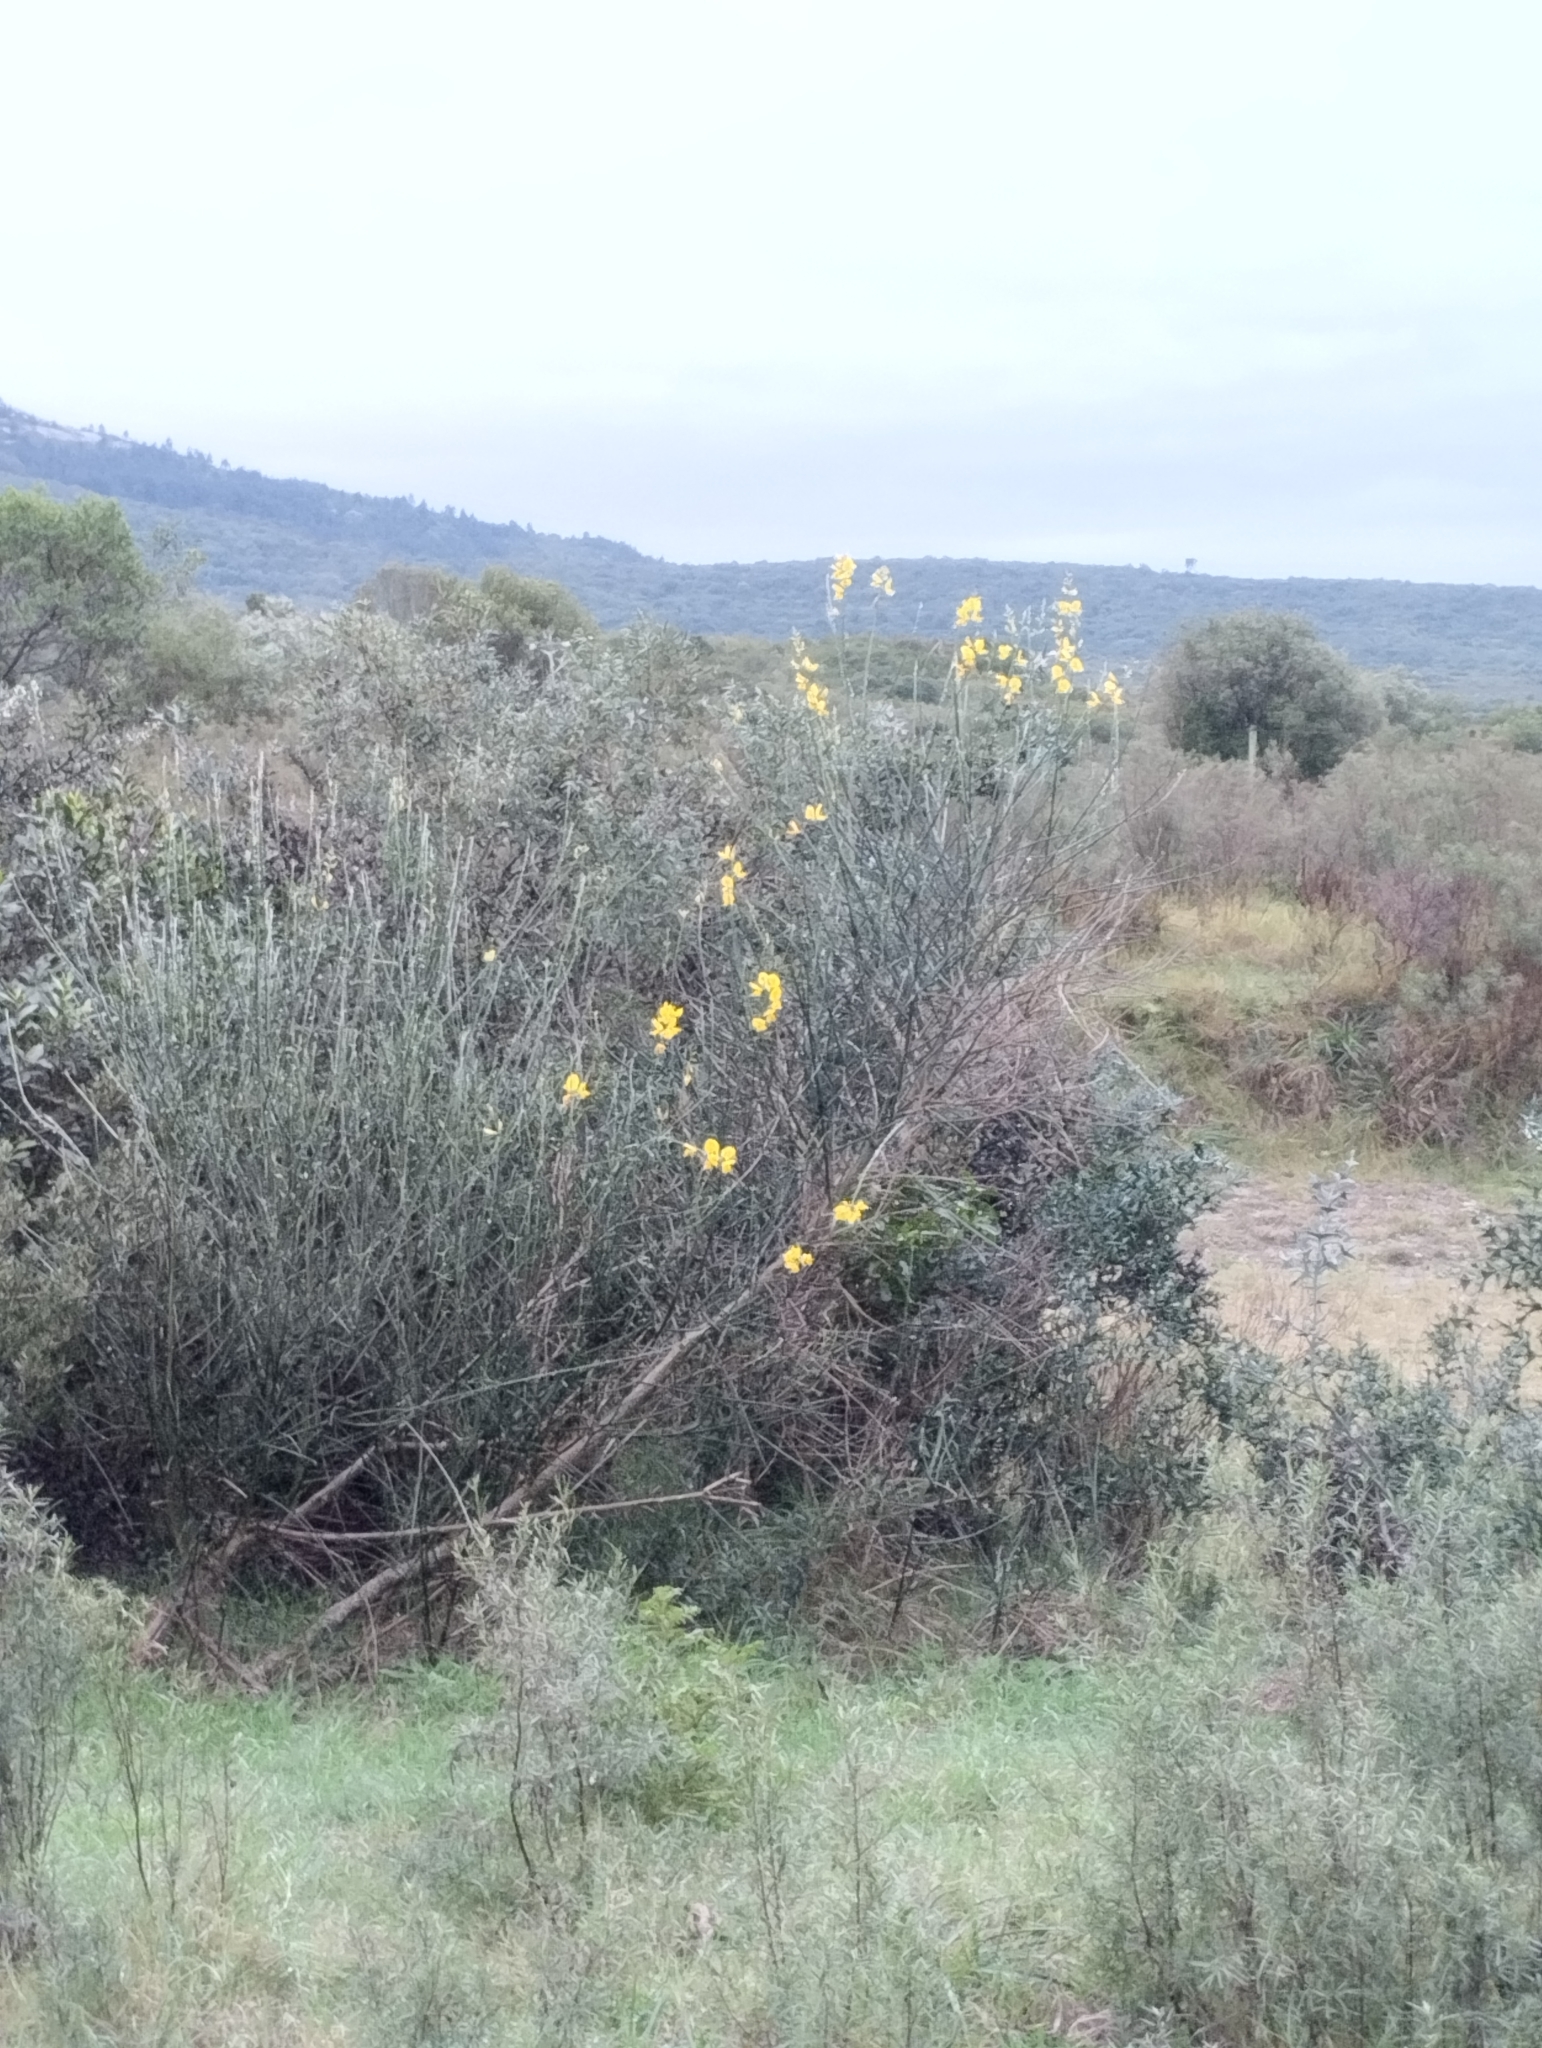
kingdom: Plantae
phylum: Tracheophyta
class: Magnoliopsida
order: Fabales
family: Fabaceae
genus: Spartium
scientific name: Spartium junceum
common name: Spanish broom
